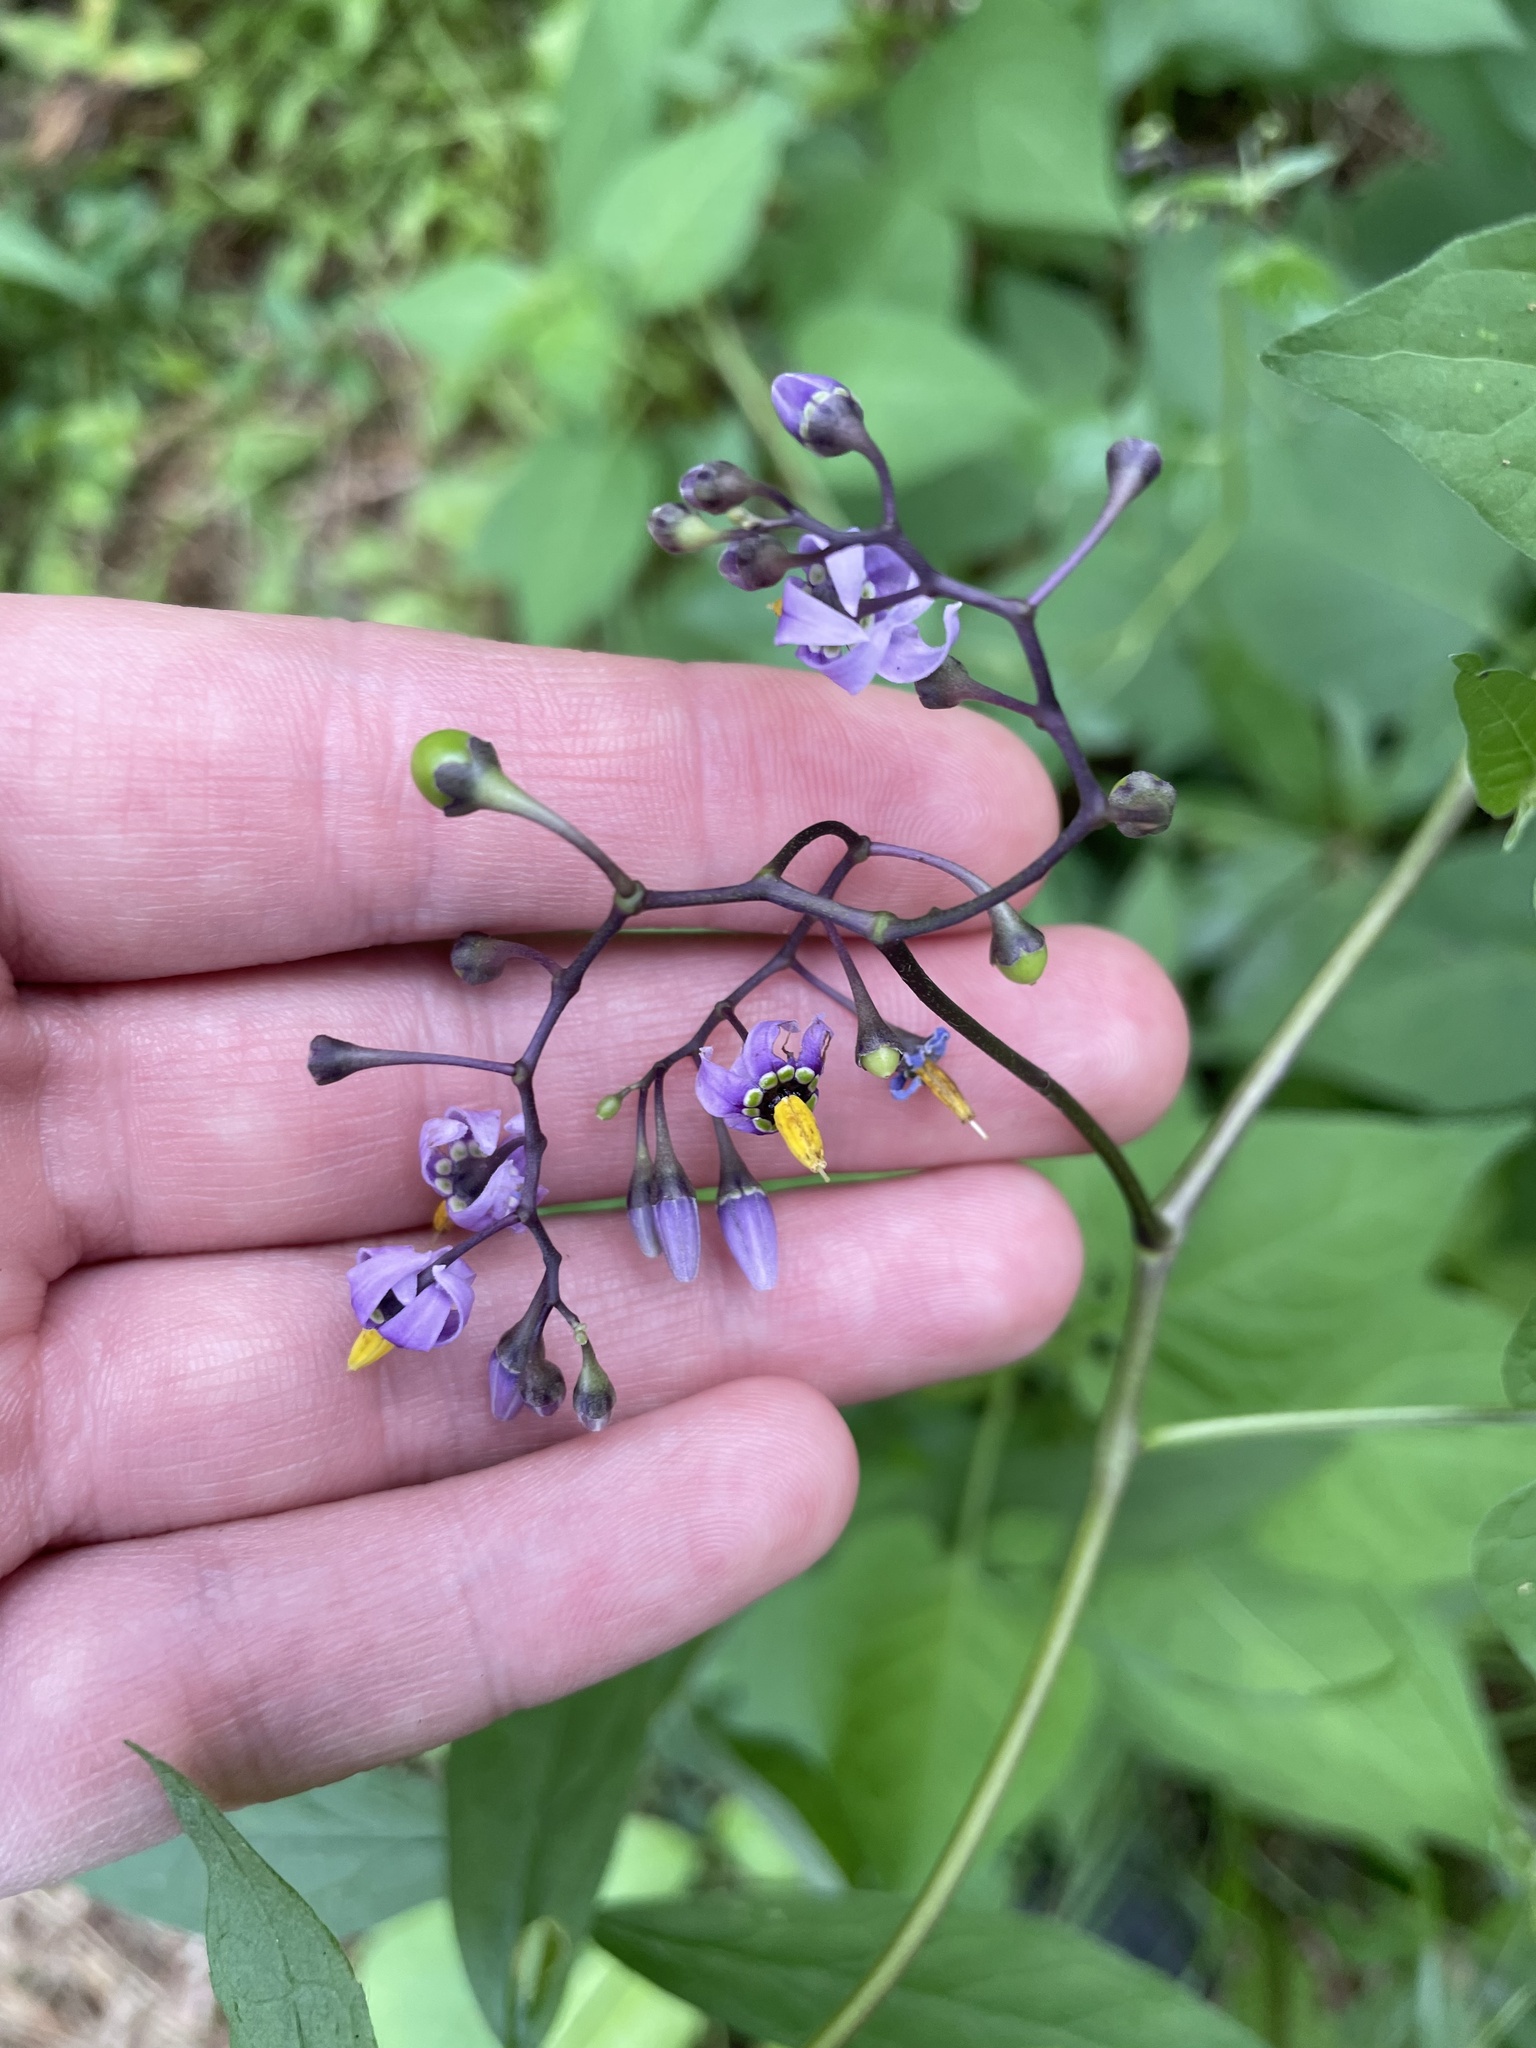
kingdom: Plantae
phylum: Tracheophyta
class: Magnoliopsida
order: Solanales
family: Solanaceae
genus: Solanum
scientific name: Solanum dulcamara
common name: Climbing nightshade
